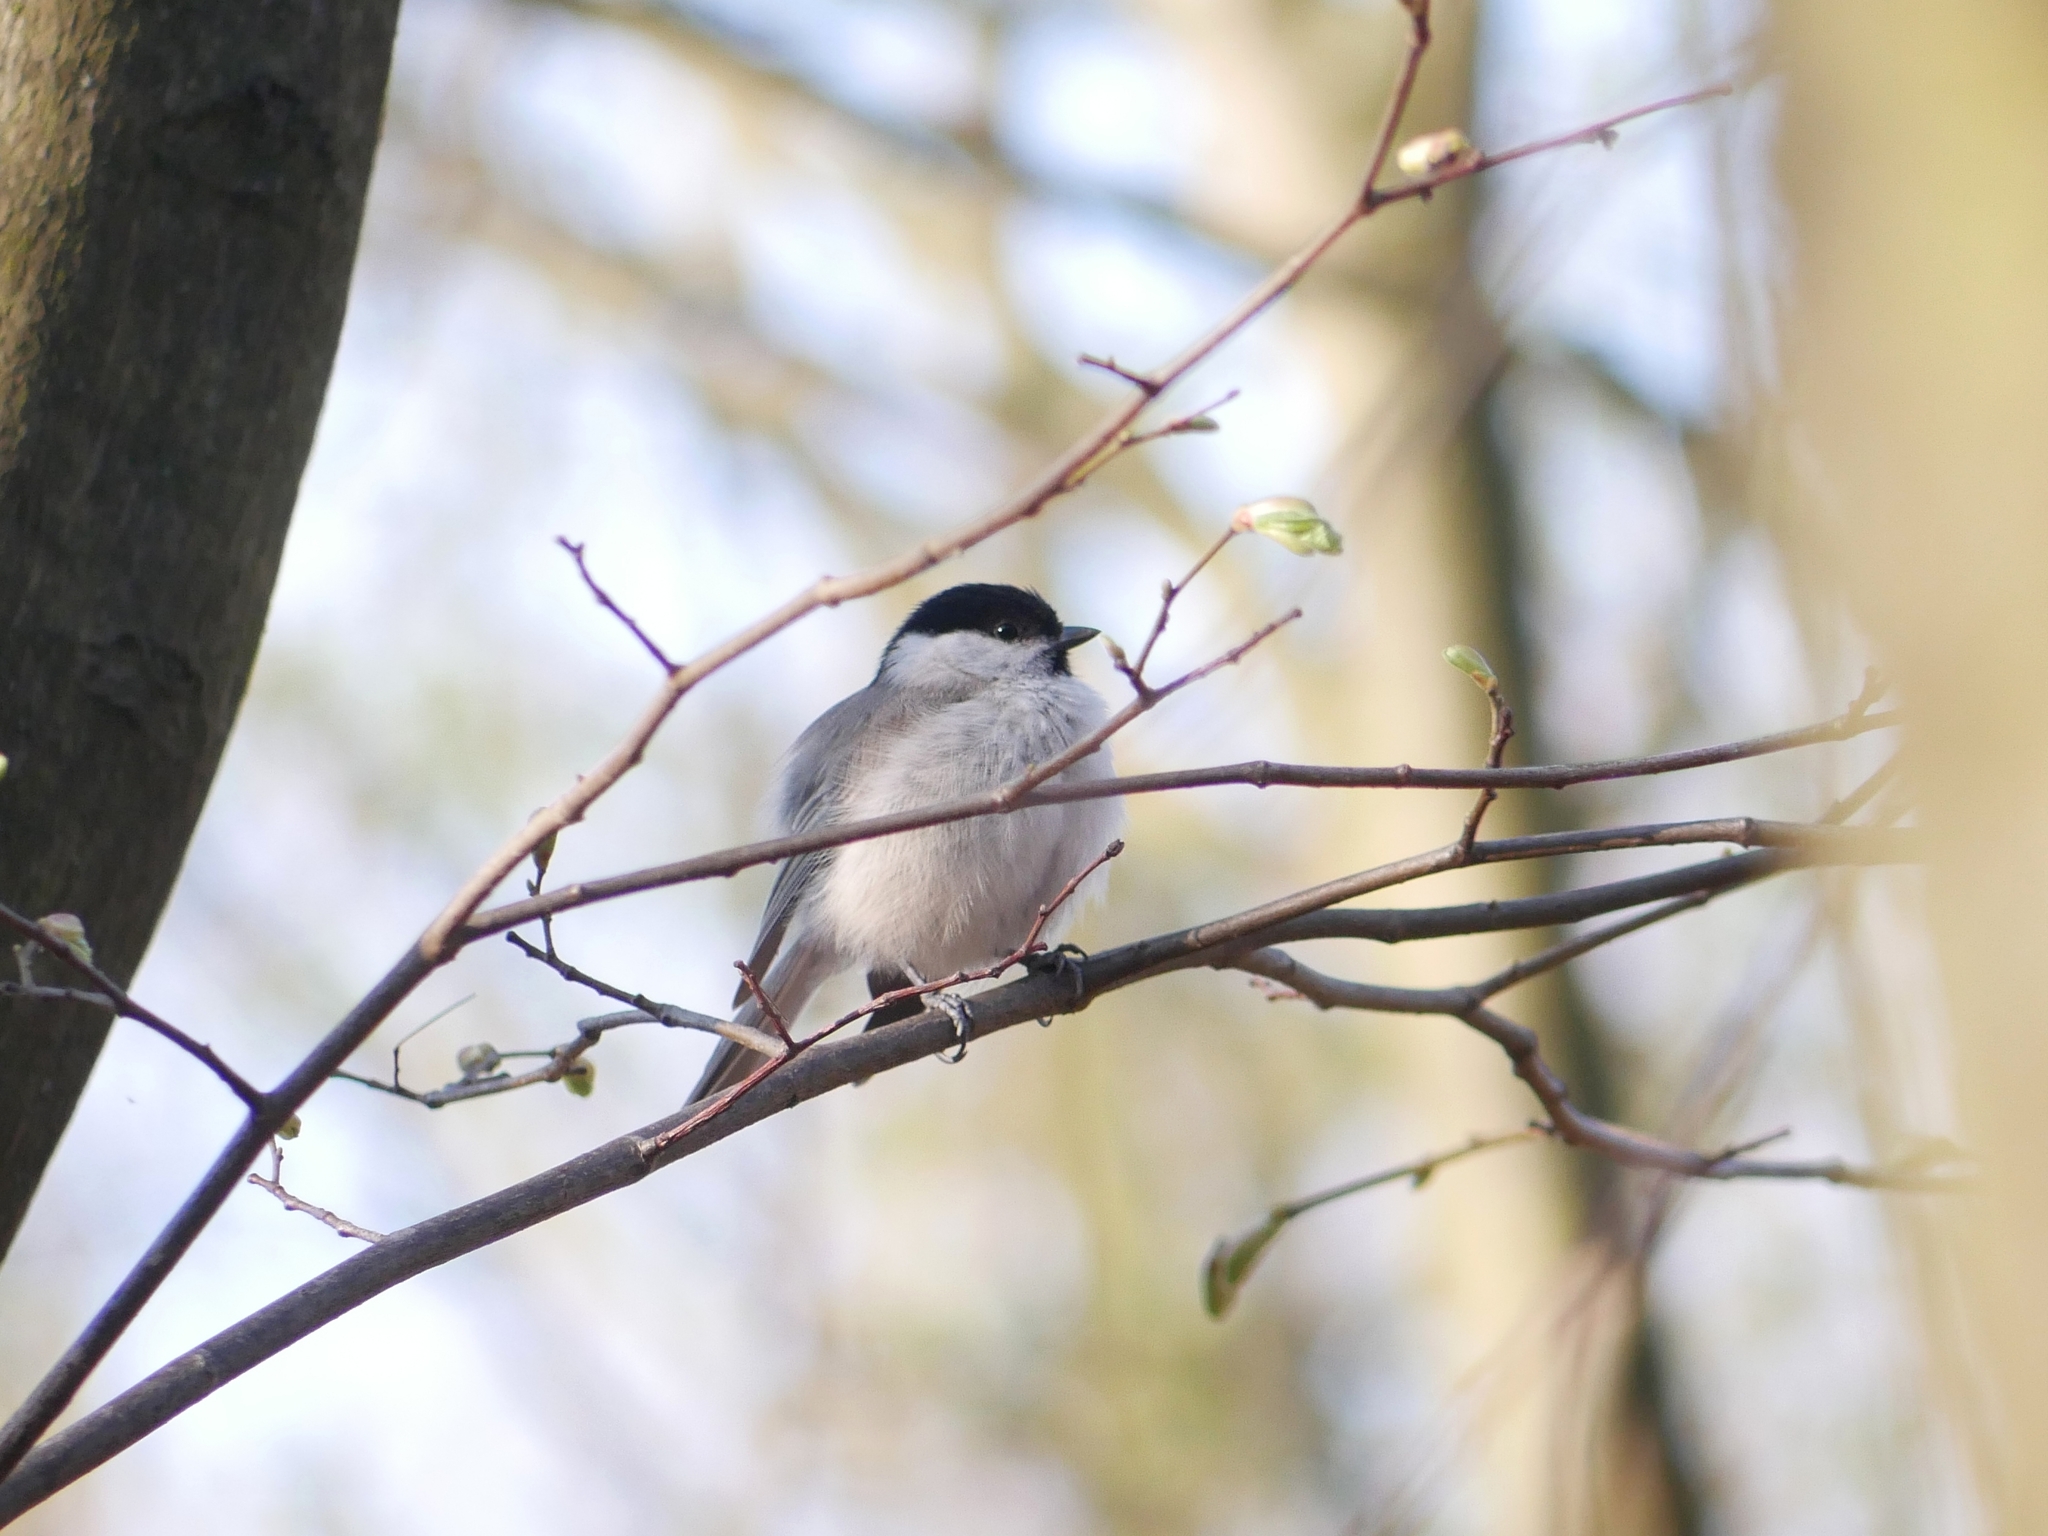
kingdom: Animalia
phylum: Chordata
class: Aves
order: Passeriformes
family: Paridae
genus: Poecile
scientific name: Poecile palustris
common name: Marsh tit
